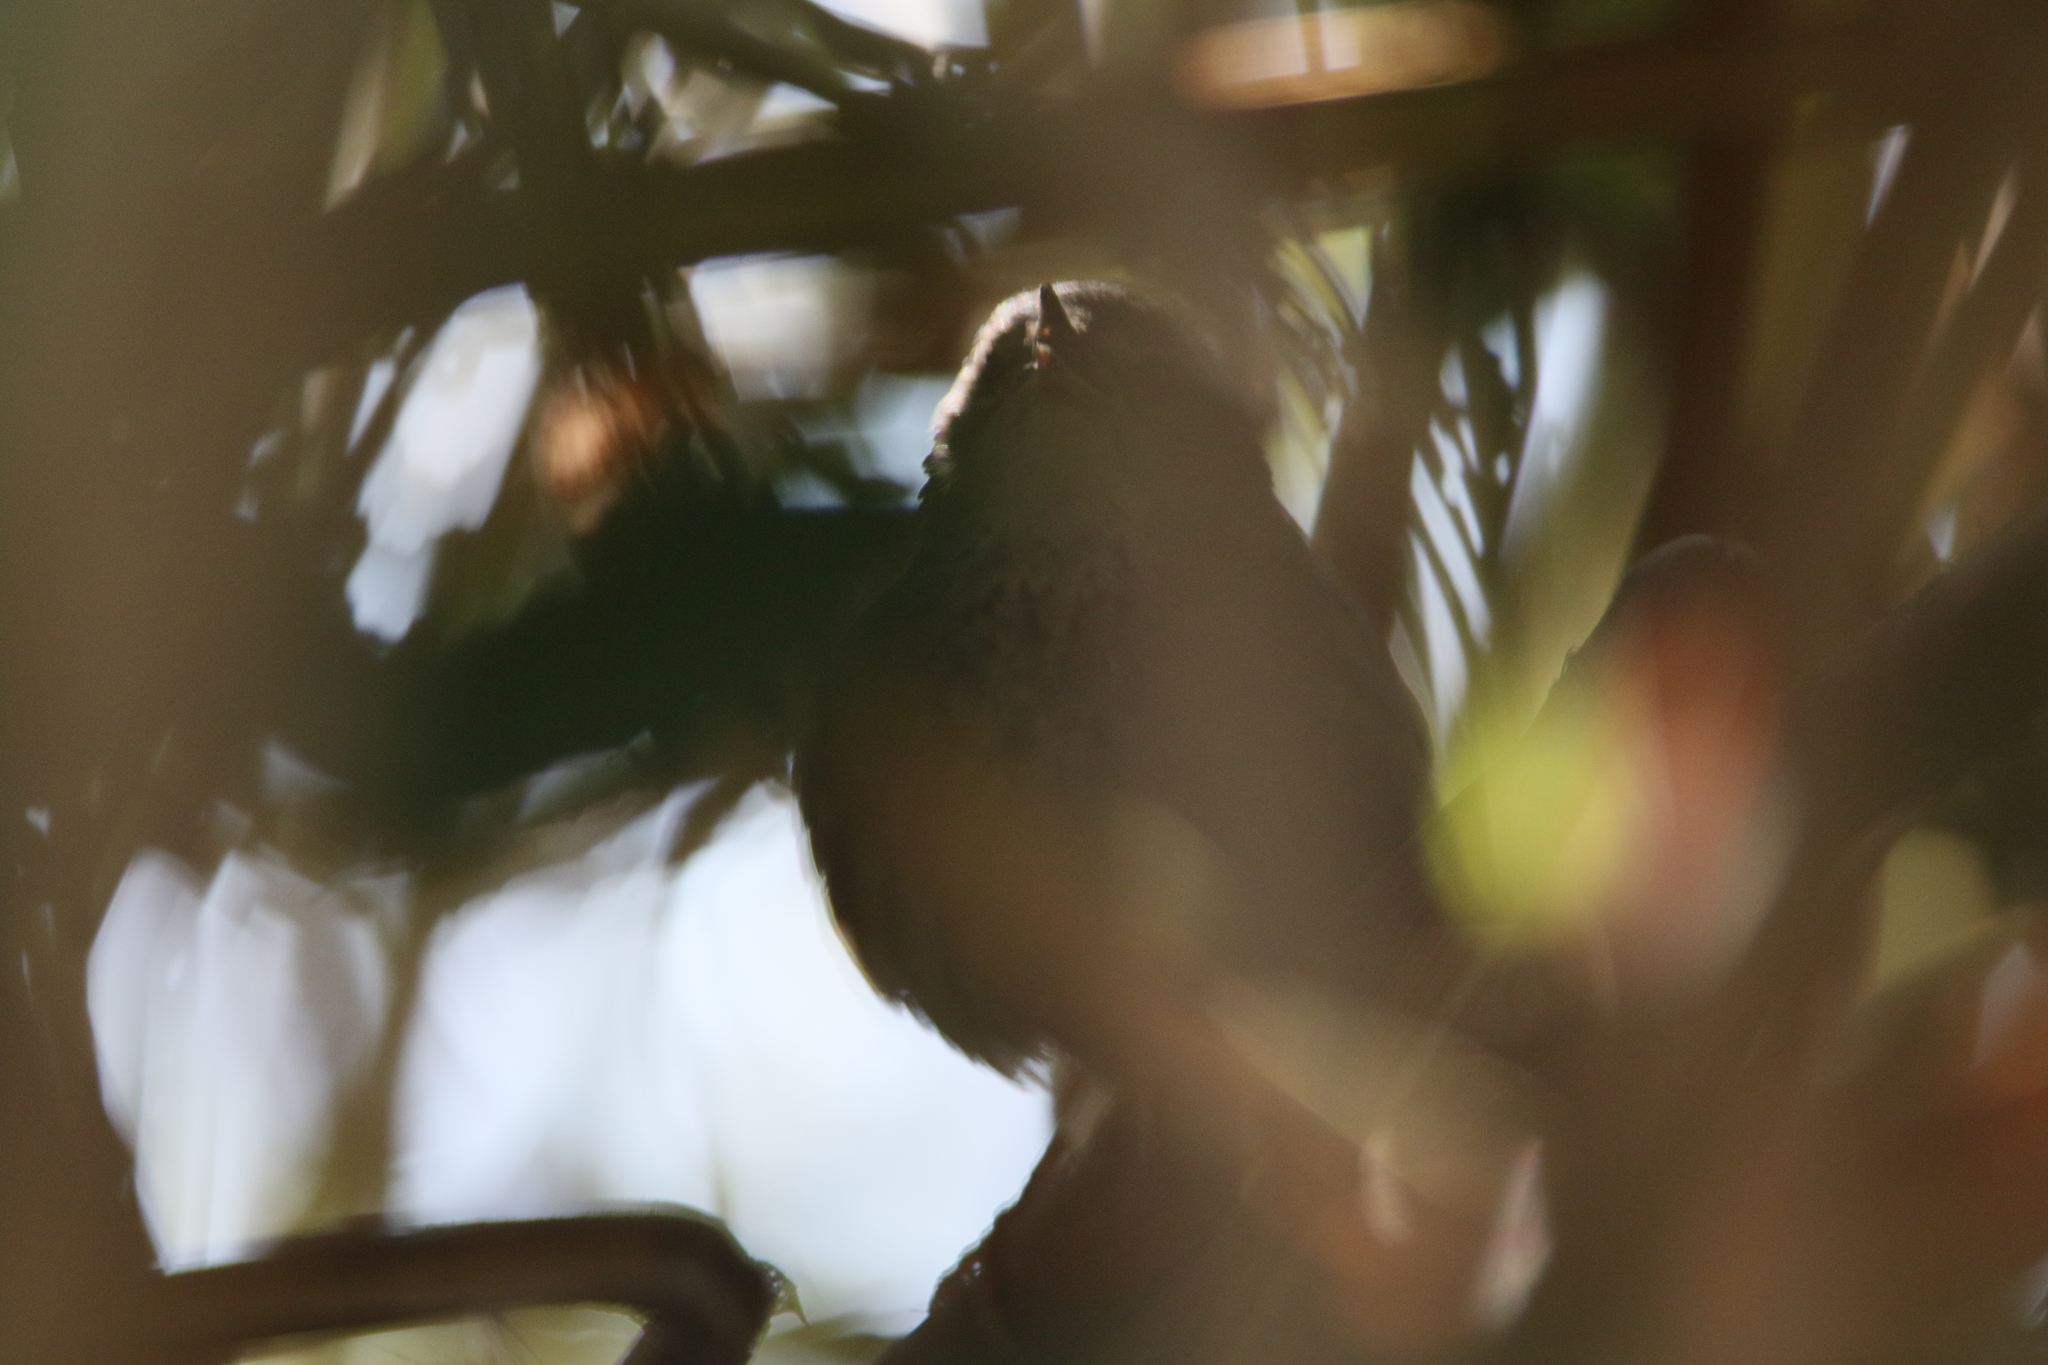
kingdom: Animalia
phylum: Chordata
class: Aves
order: Passeriformes
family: Locustellidae
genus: Locustella
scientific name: Locustella davidi
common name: Baikal bush warbler
